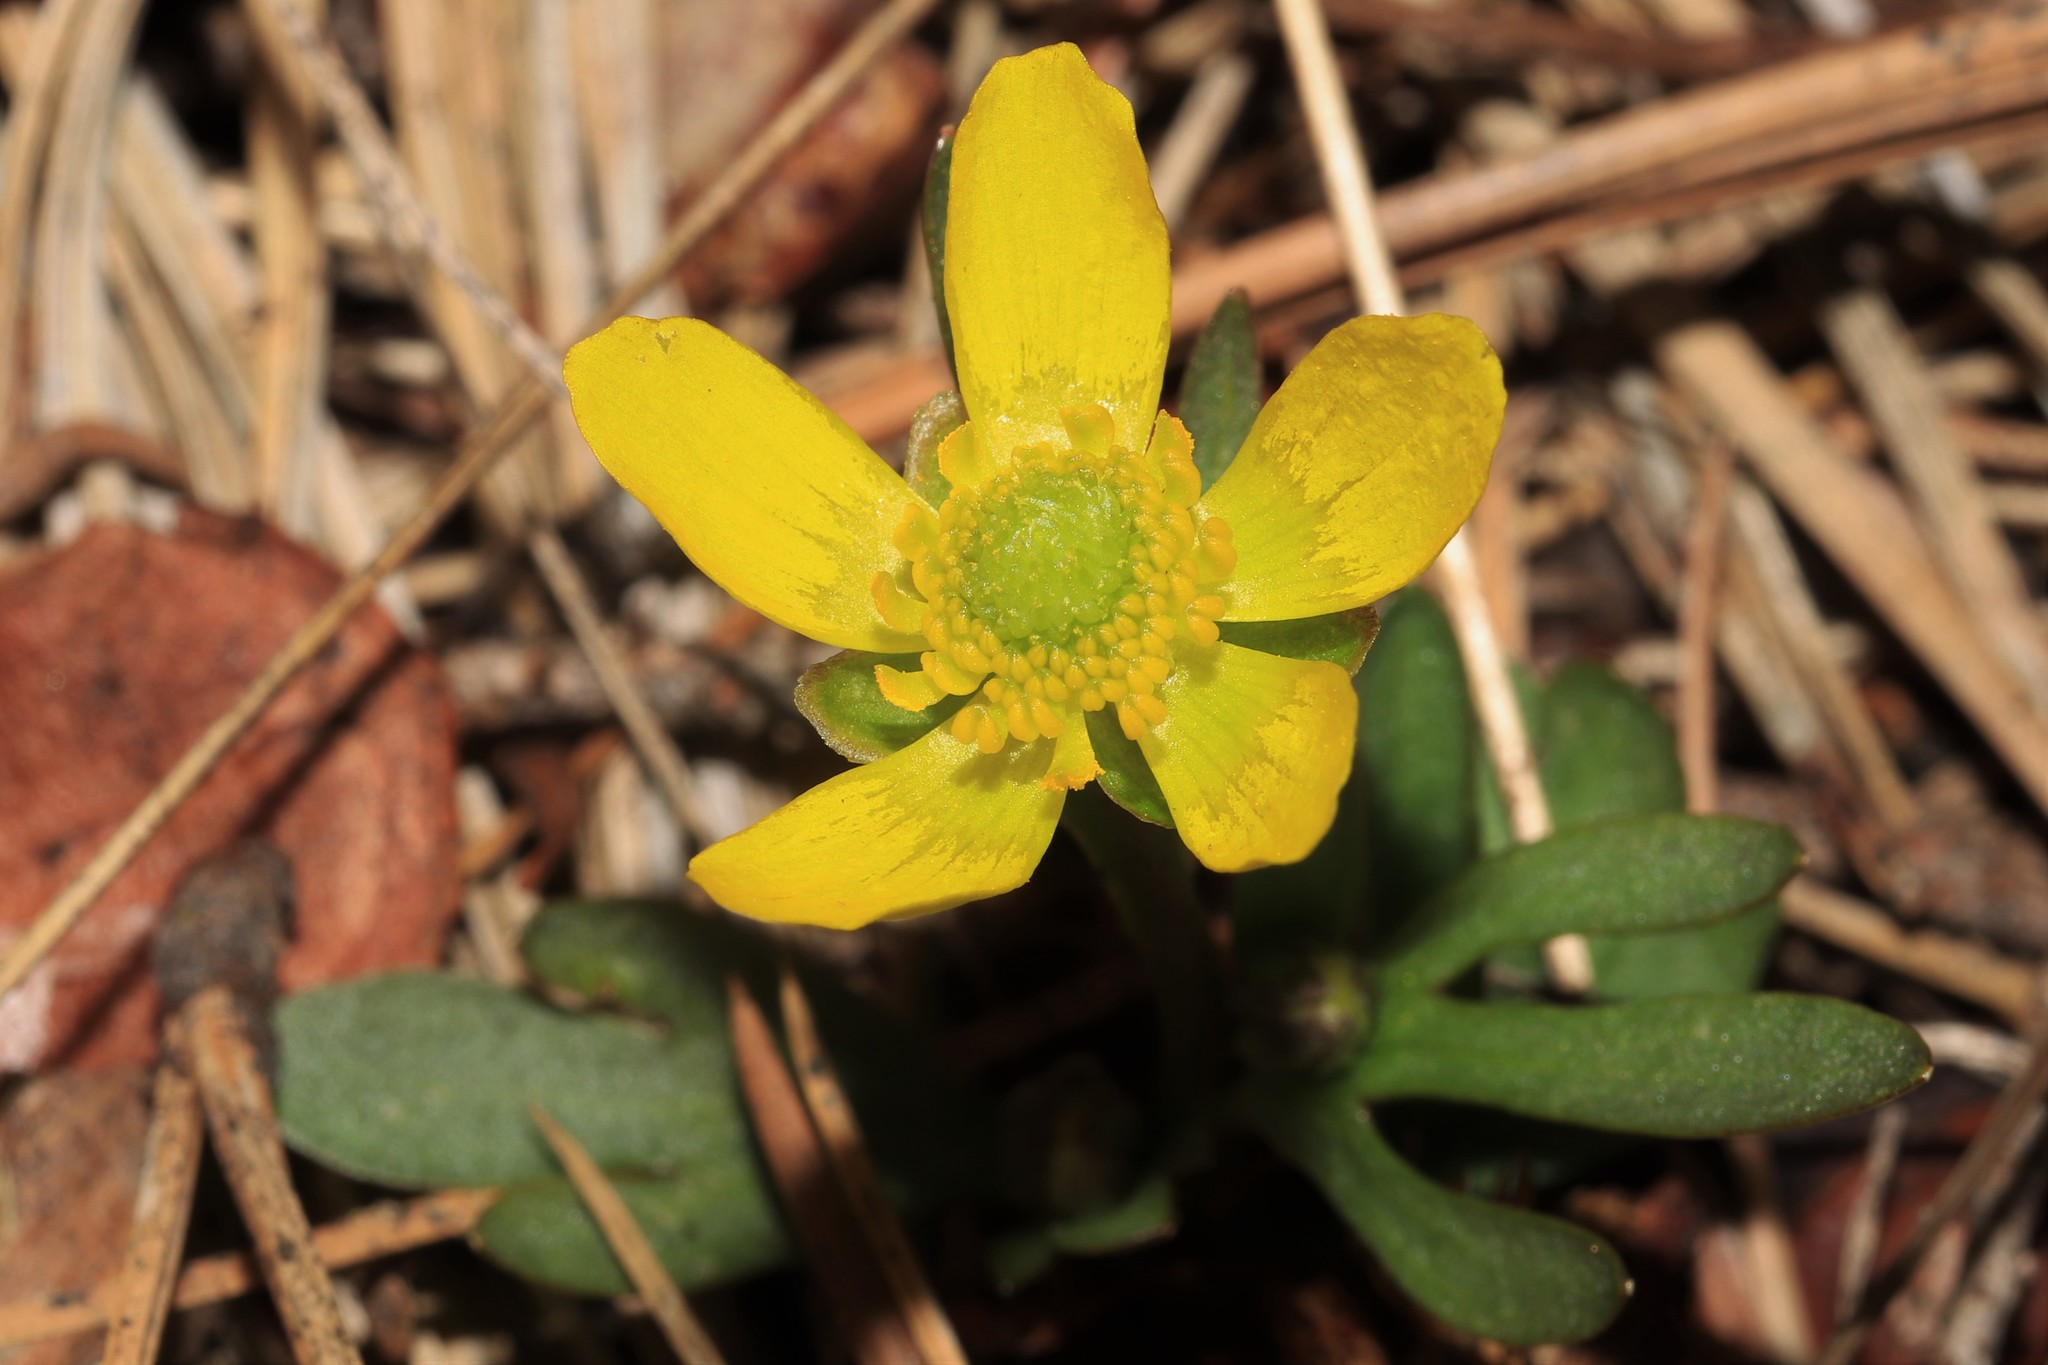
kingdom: Plantae
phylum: Tracheophyta
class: Magnoliopsida
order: Ranunculales
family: Ranunculaceae
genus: Ranunculus
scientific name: Ranunculus glaberrimus
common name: Sagebrush buttercup
